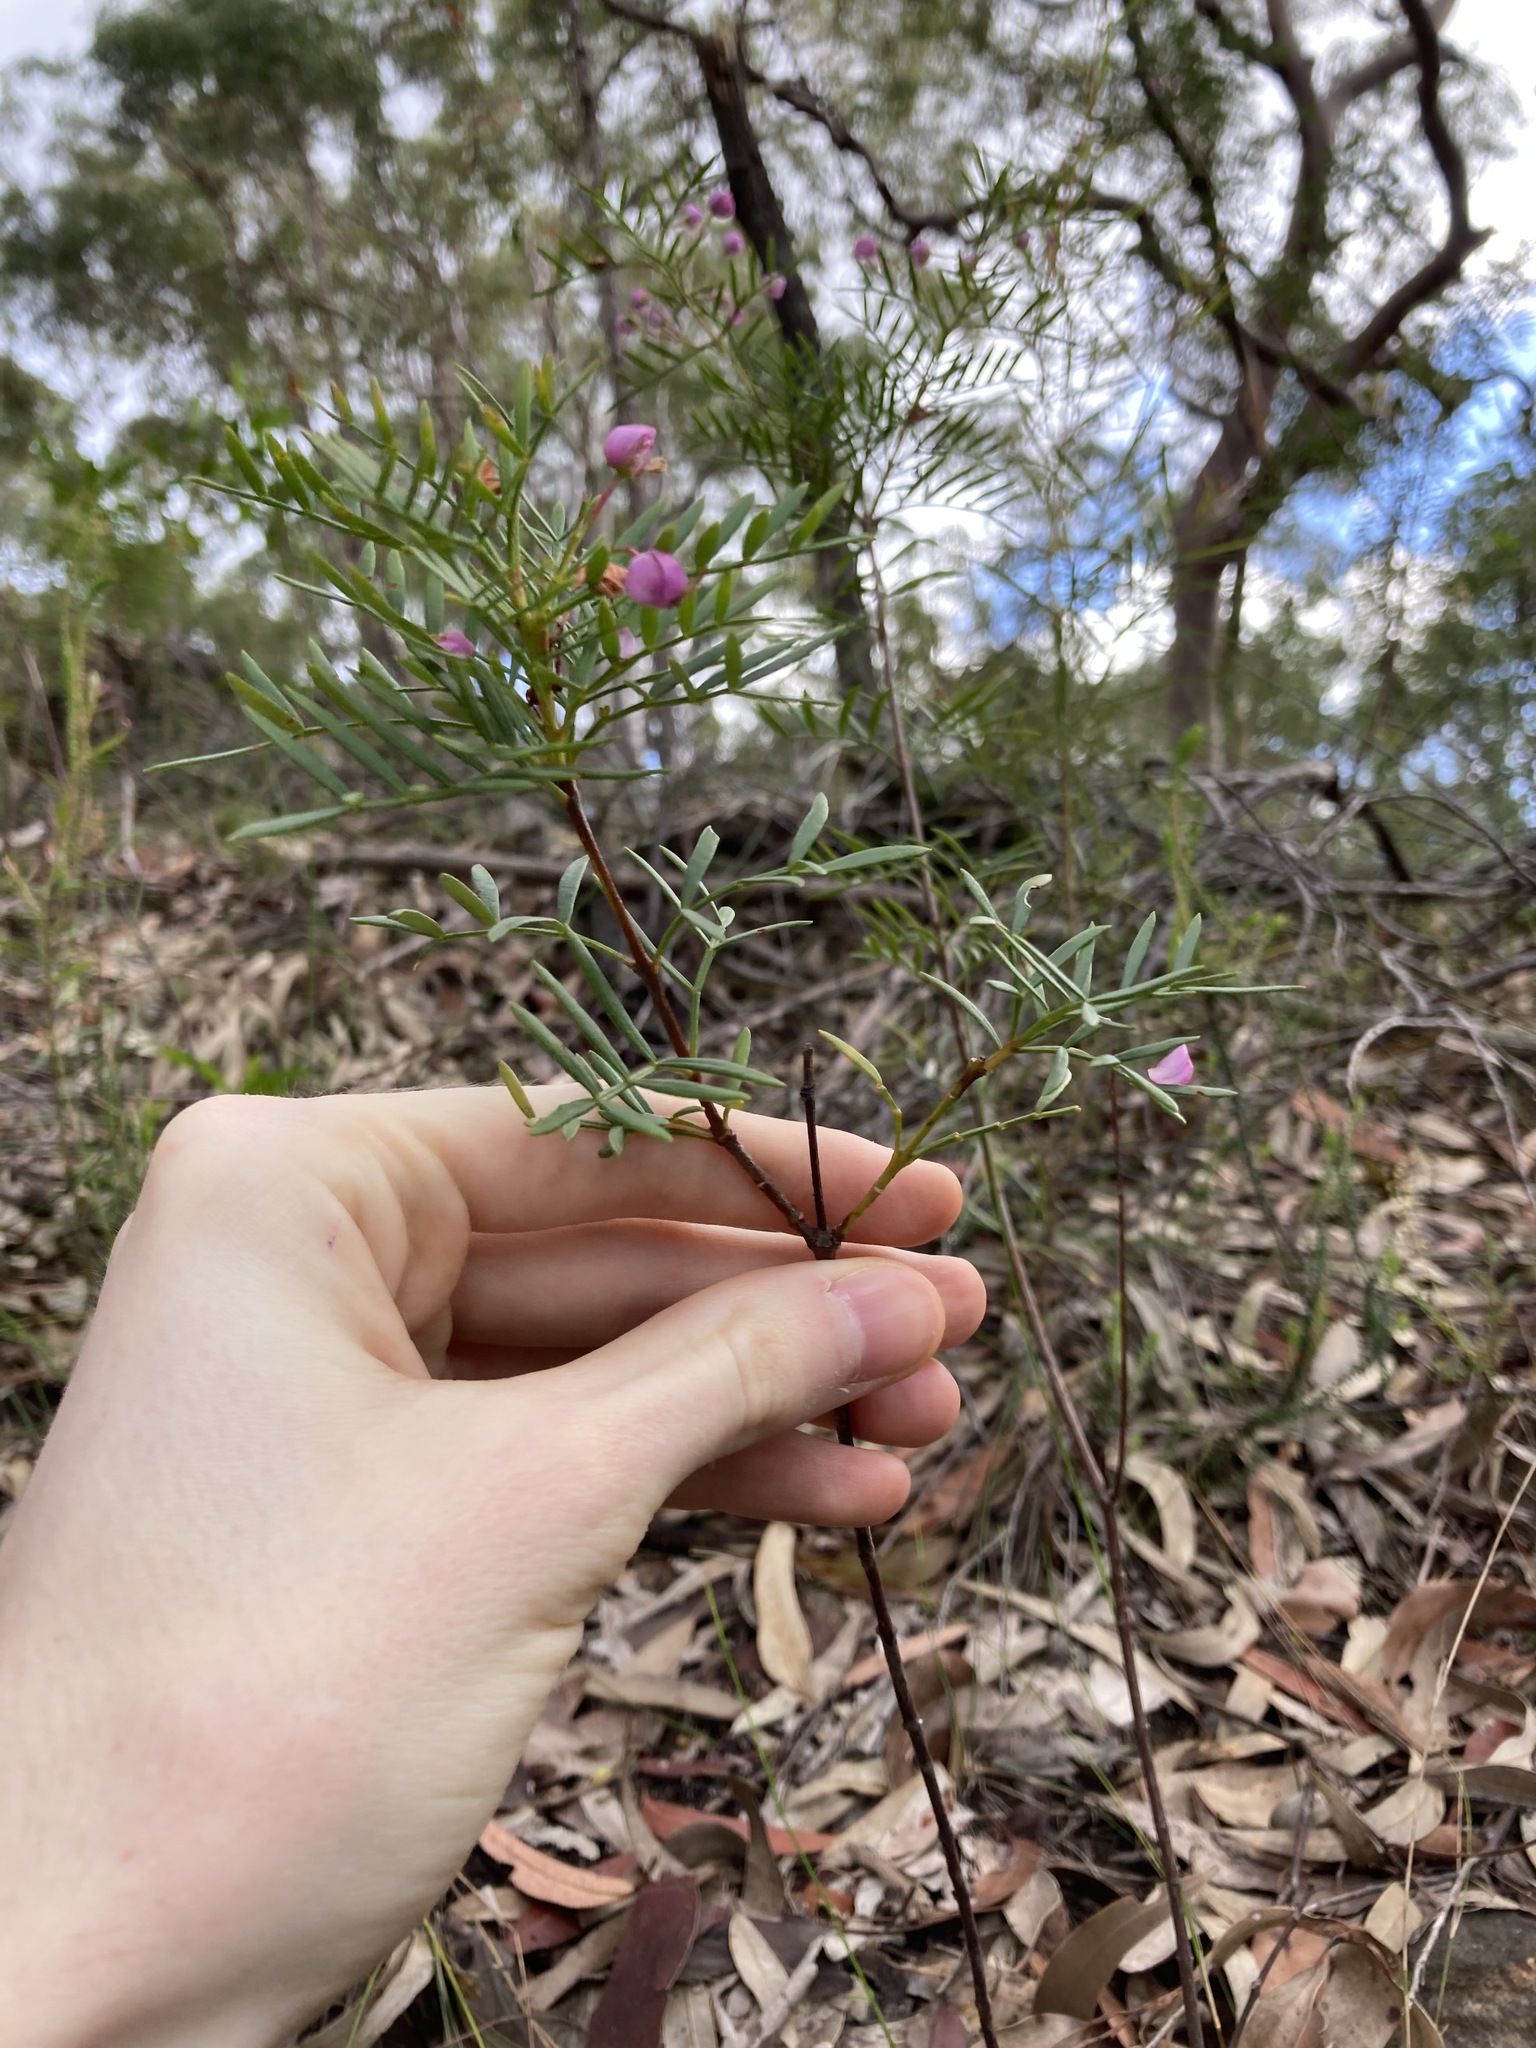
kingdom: Plantae
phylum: Tracheophyta
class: Magnoliopsida
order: Sapindales
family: Rutaceae
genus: Boronia
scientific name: Boronia pinnata
